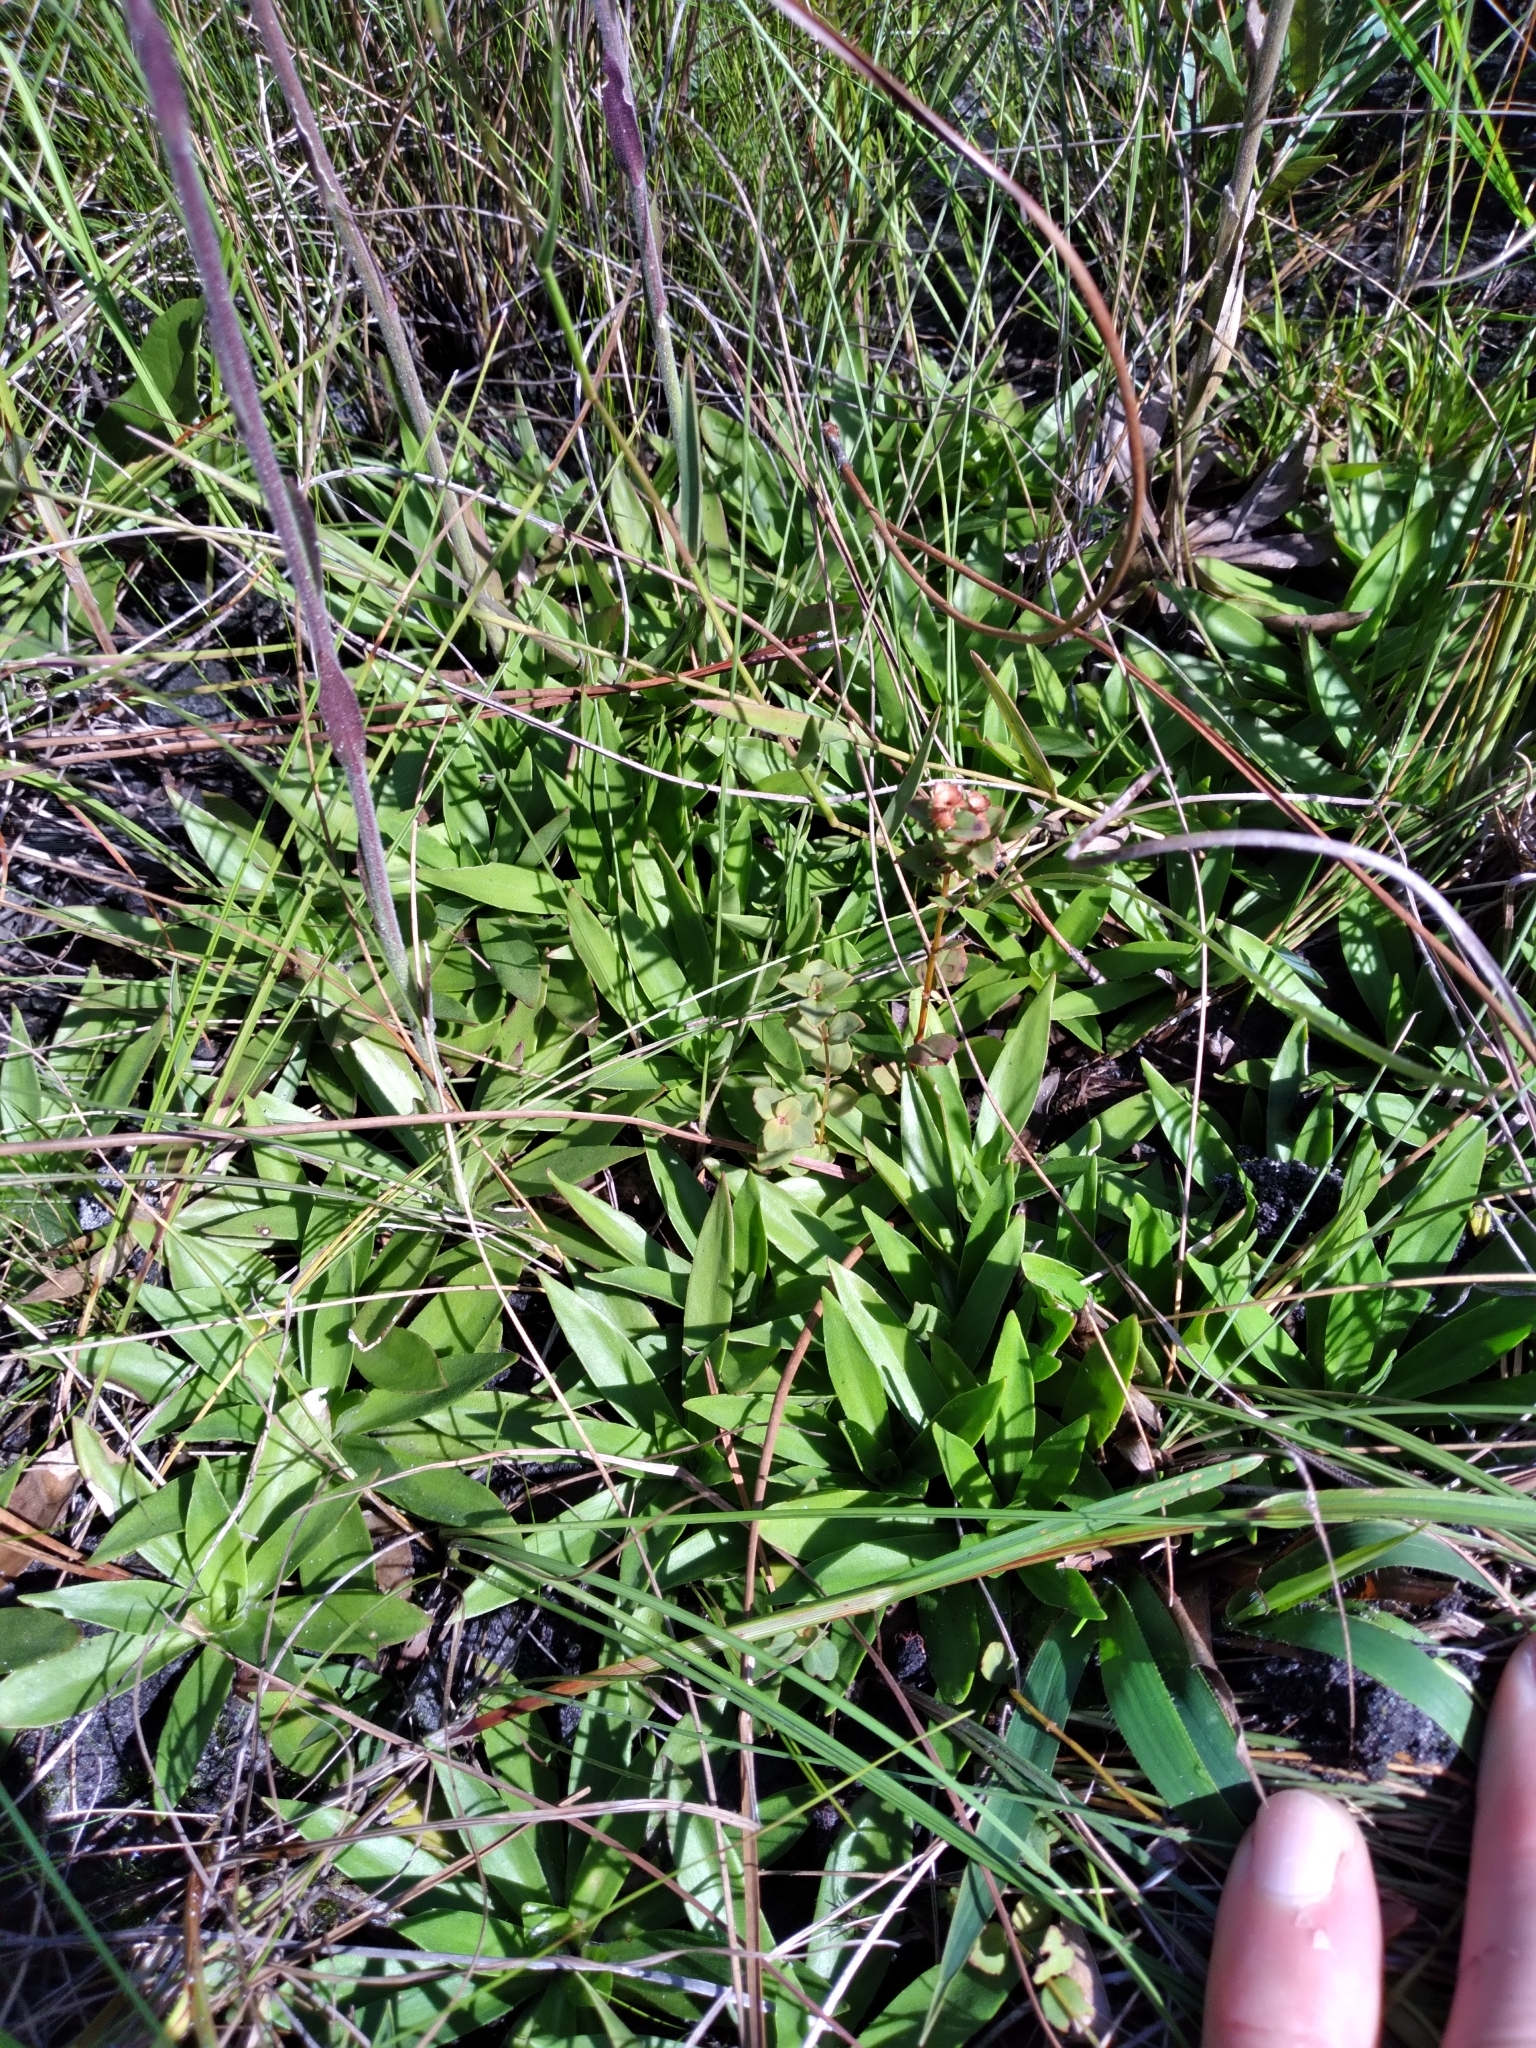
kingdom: Plantae
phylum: Tracheophyta
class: Magnoliopsida
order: Asterales
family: Asteraceae
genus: Carphephorus
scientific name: Carphephorus carnosus
